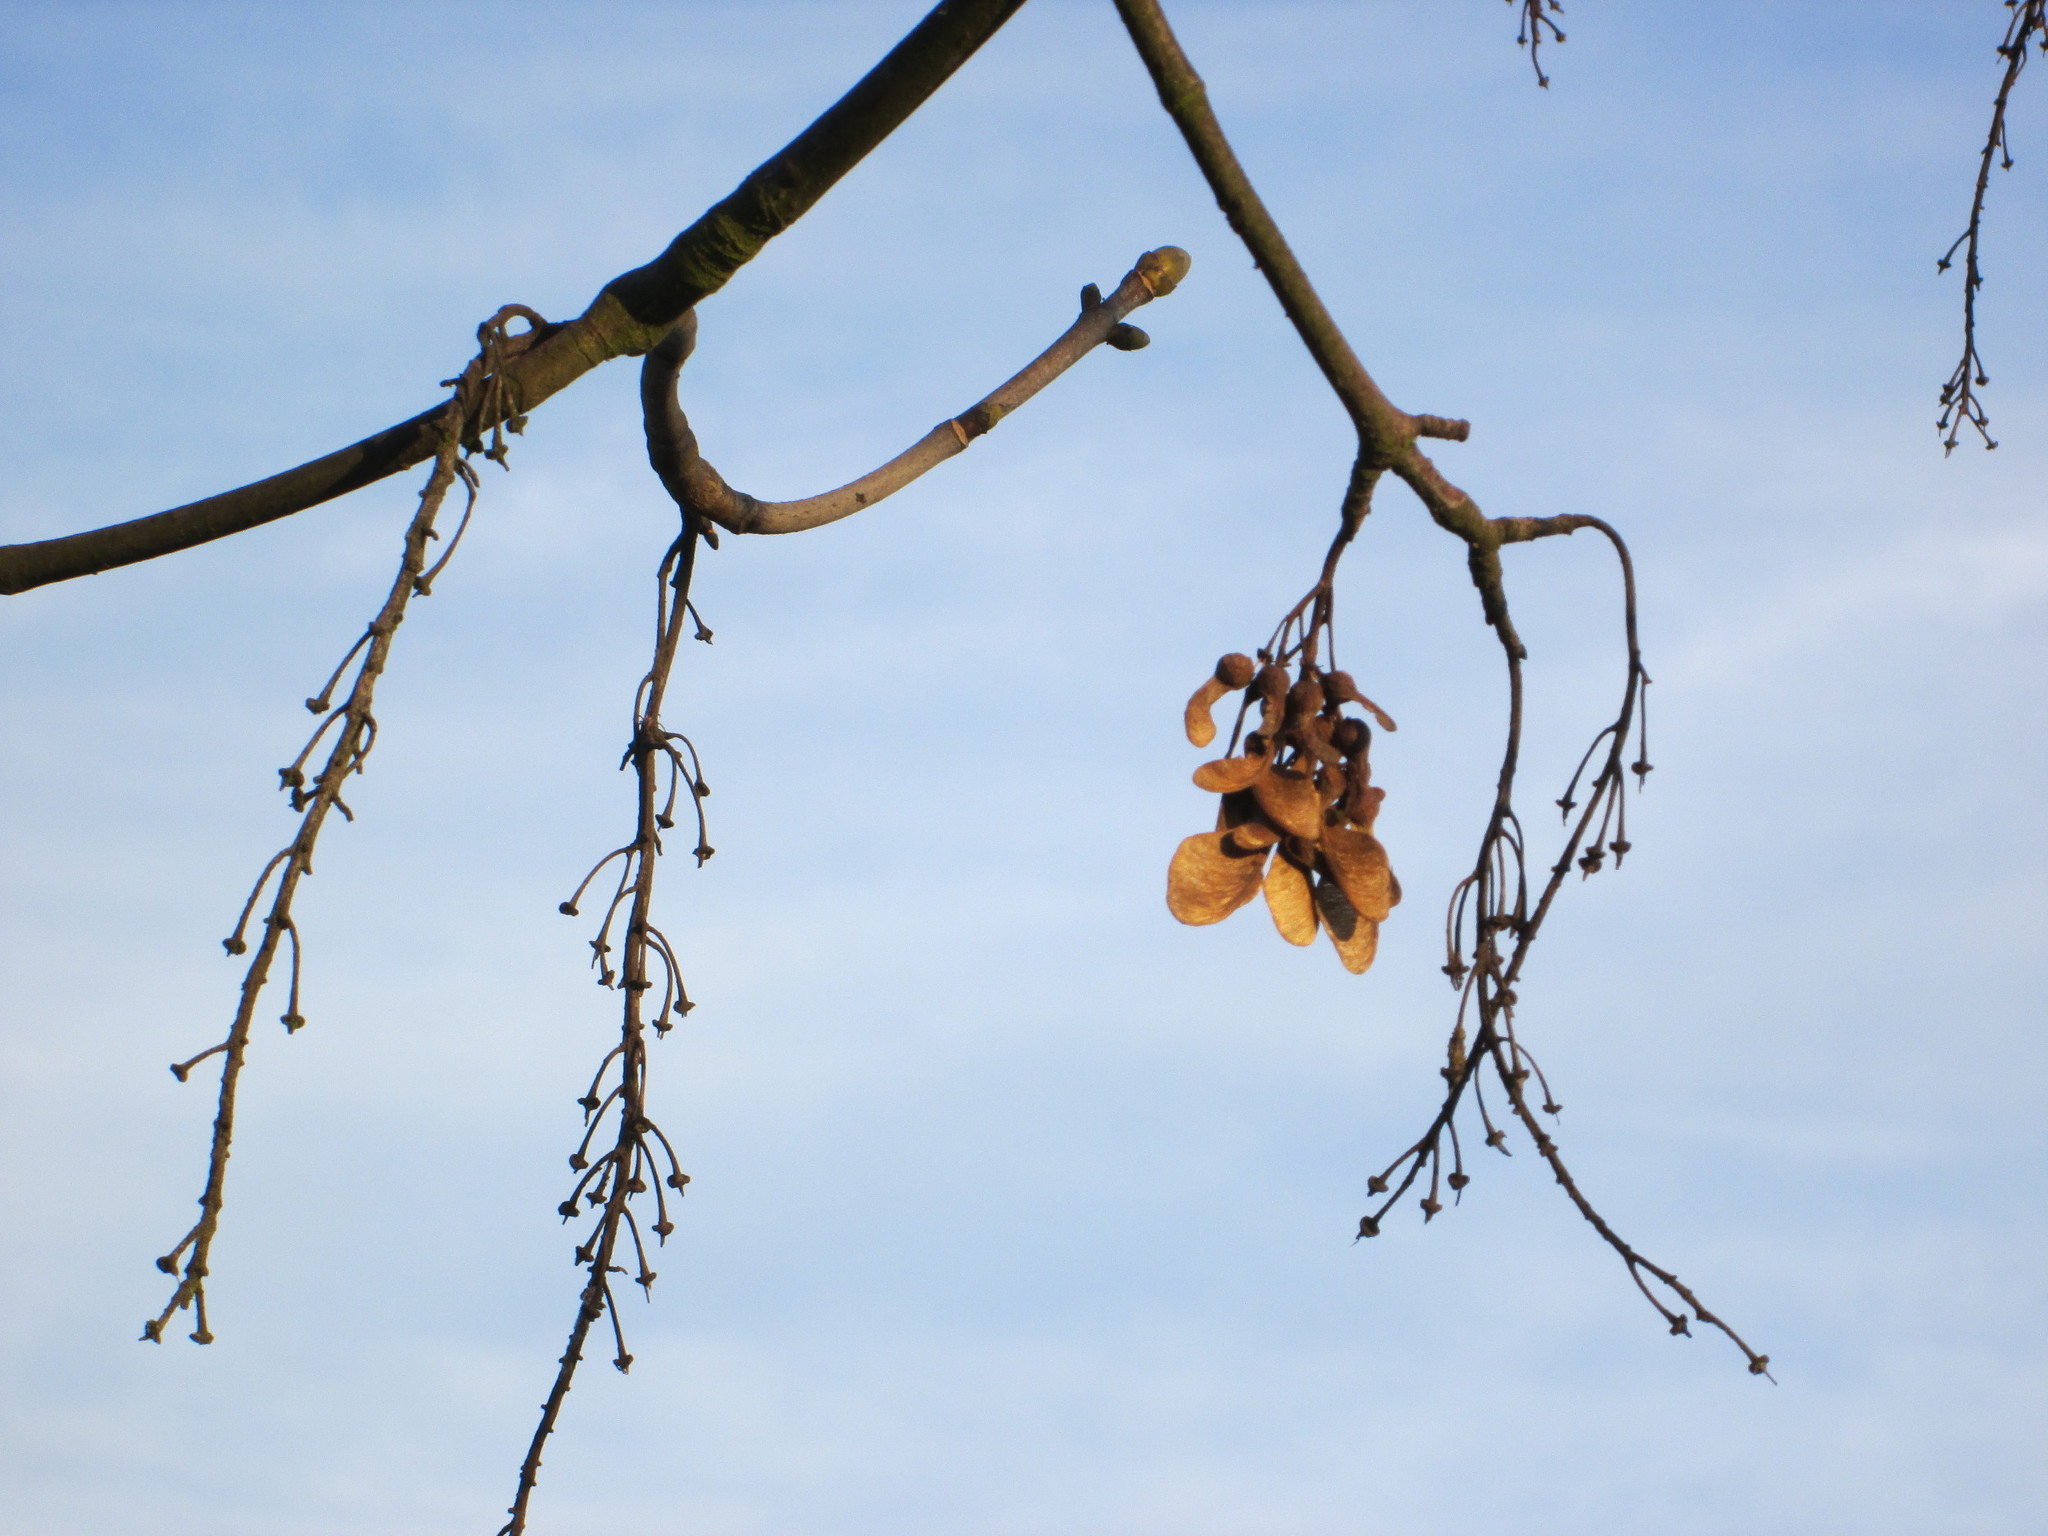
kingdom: Plantae
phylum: Tracheophyta
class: Magnoliopsida
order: Sapindales
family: Sapindaceae
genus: Acer
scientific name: Acer pseudoplatanus
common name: Sycamore
